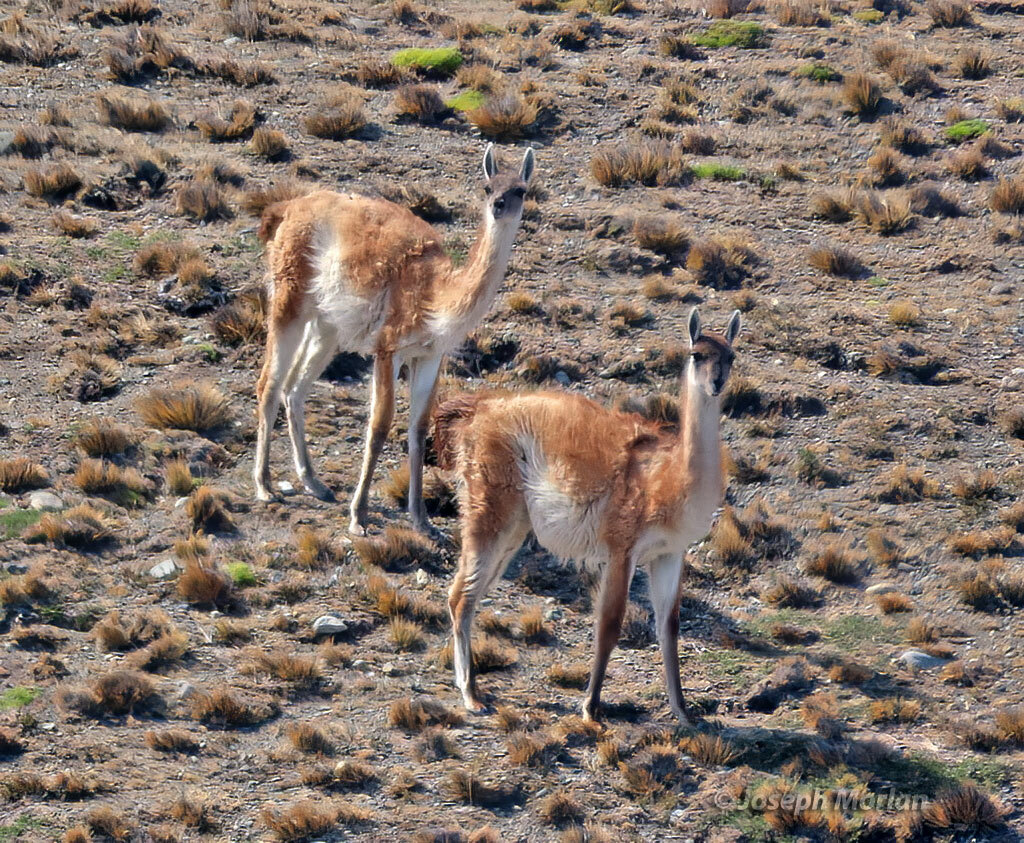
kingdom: Animalia
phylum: Chordata
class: Mammalia
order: Artiodactyla
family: Camelidae
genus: Lama
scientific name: Lama glama
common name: Llama
